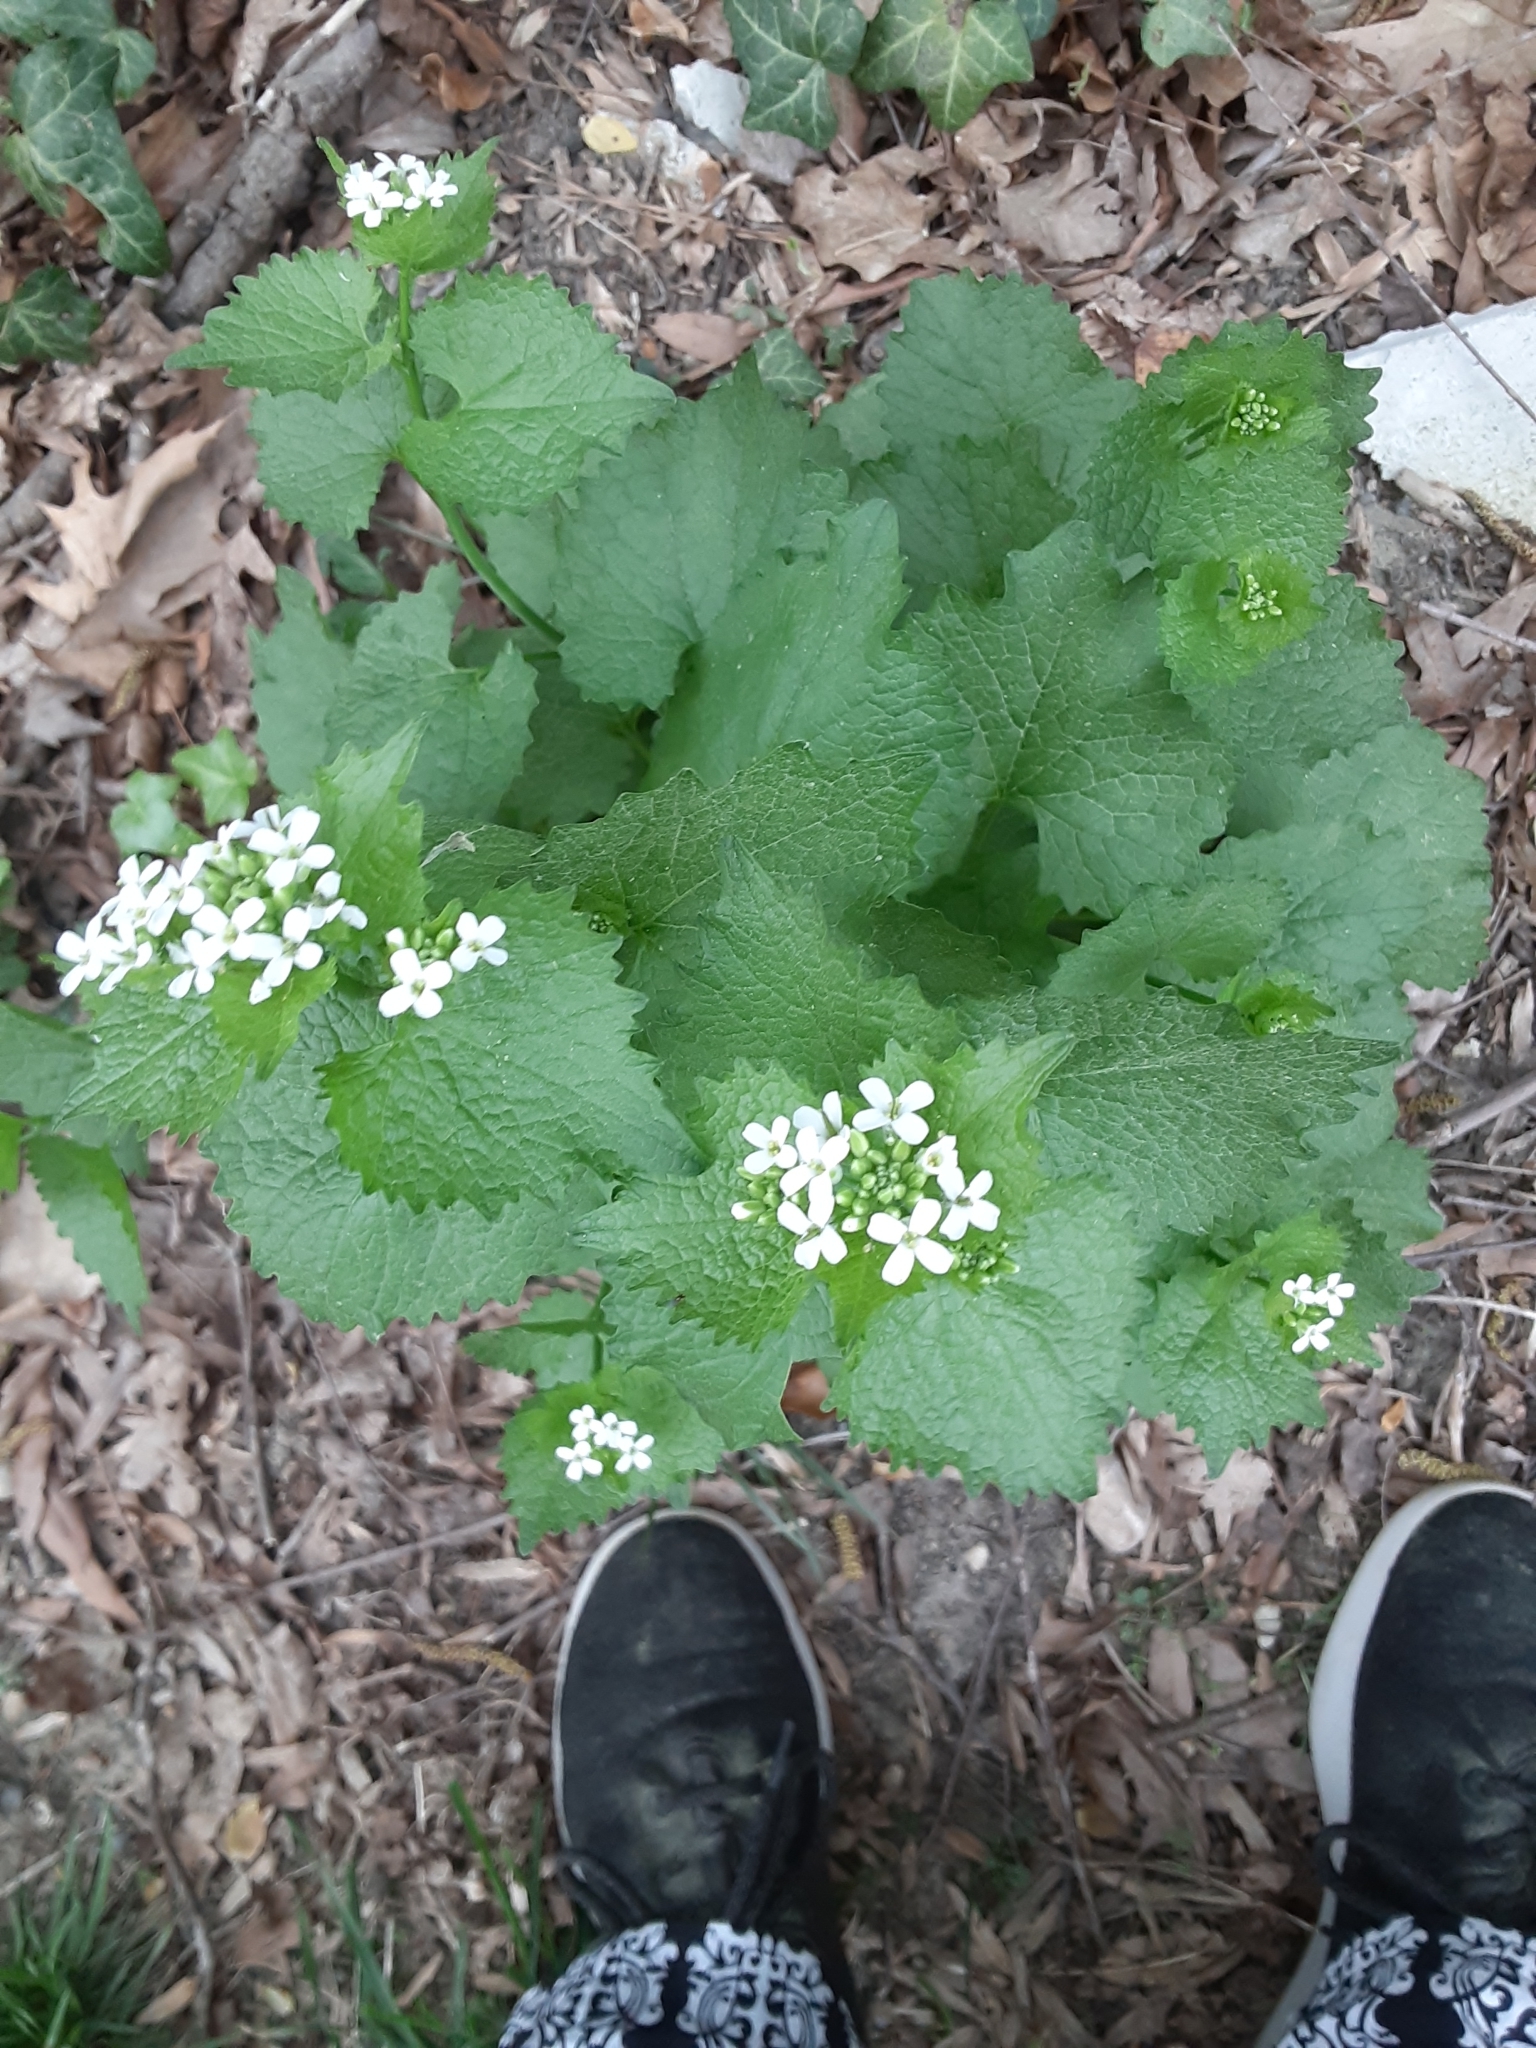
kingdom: Plantae
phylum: Tracheophyta
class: Magnoliopsida
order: Brassicales
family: Brassicaceae
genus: Alliaria
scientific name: Alliaria petiolata
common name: Garlic mustard
